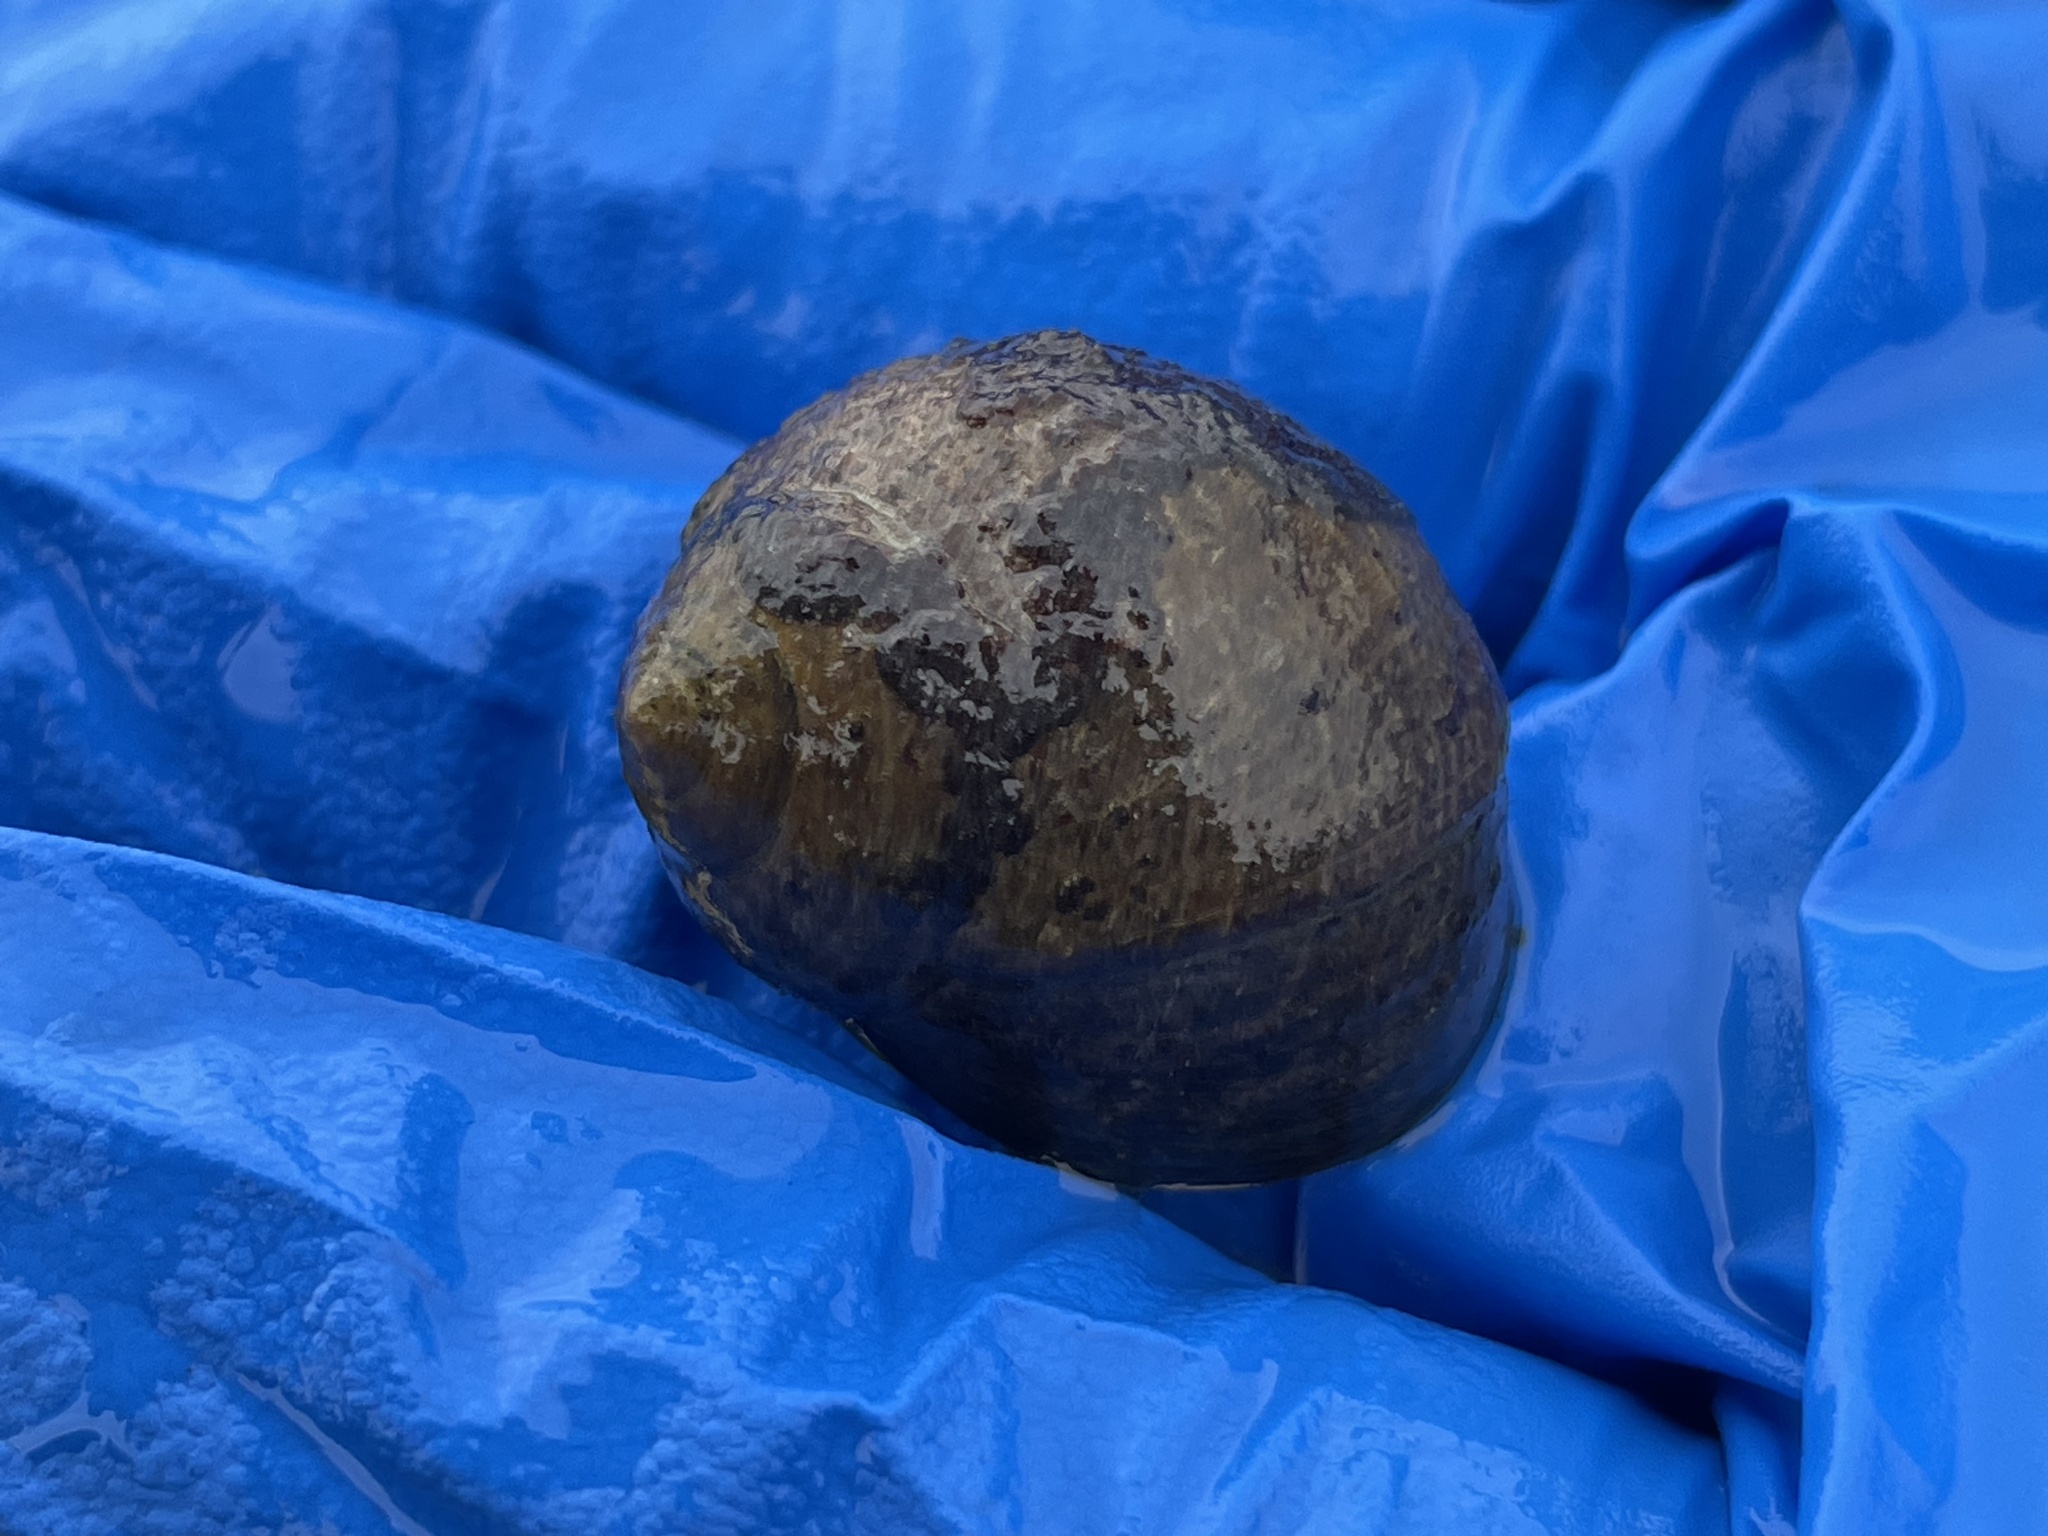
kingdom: Animalia
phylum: Mollusca
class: Gastropoda
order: Littorinimorpha
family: Littorinidae
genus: Littorina
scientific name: Littorina littorea
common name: Common periwinkle
